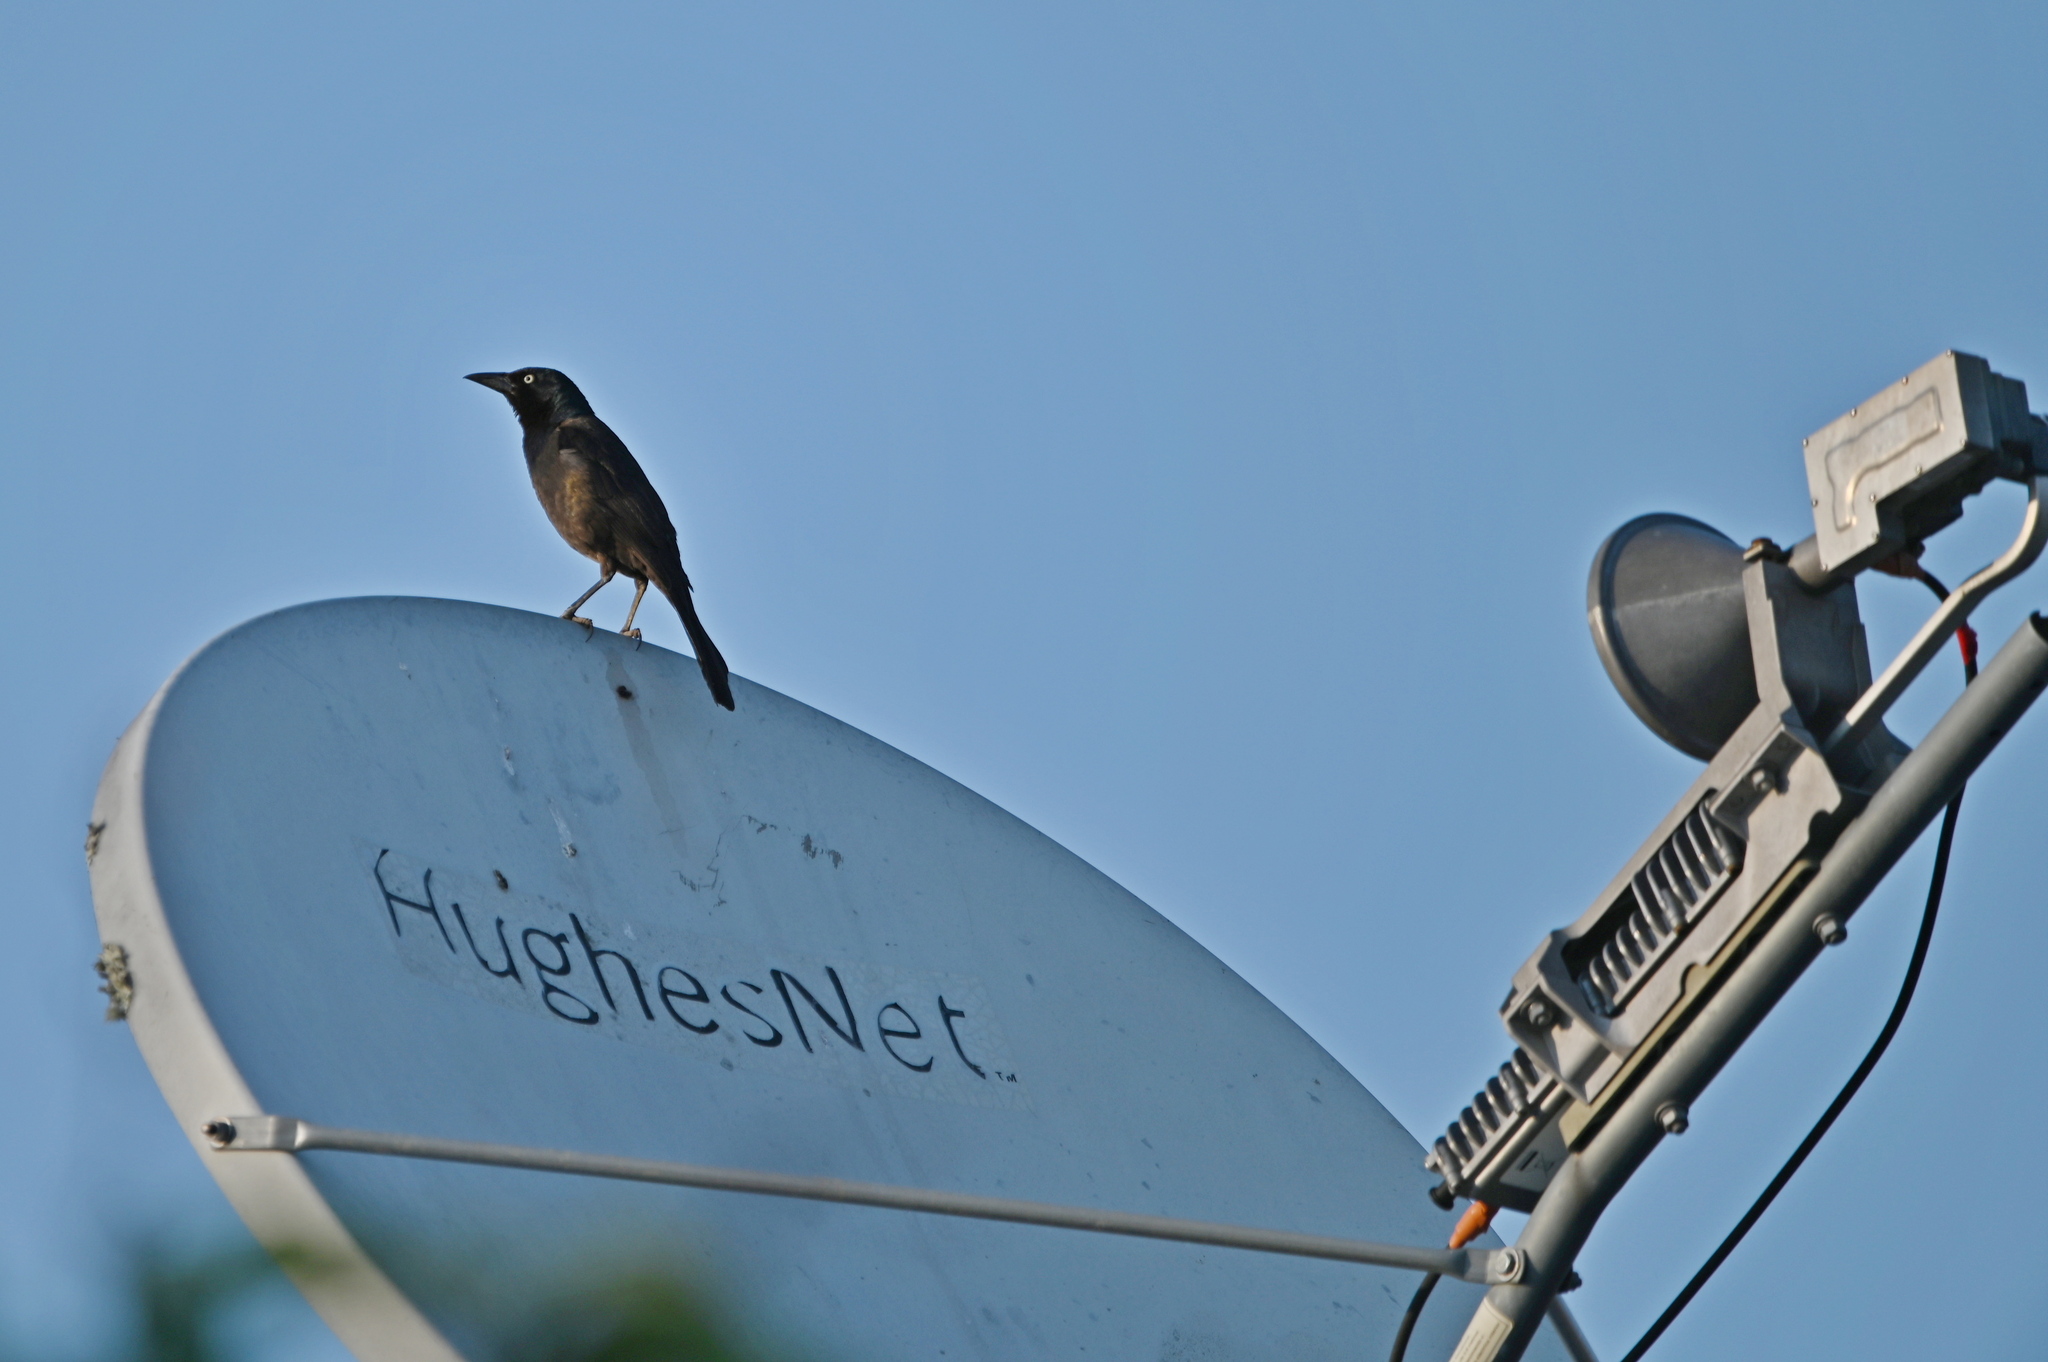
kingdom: Animalia
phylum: Chordata
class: Aves
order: Passeriformes
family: Icteridae
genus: Quiscalus
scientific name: Quiscalus quiscula
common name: Common grackle
